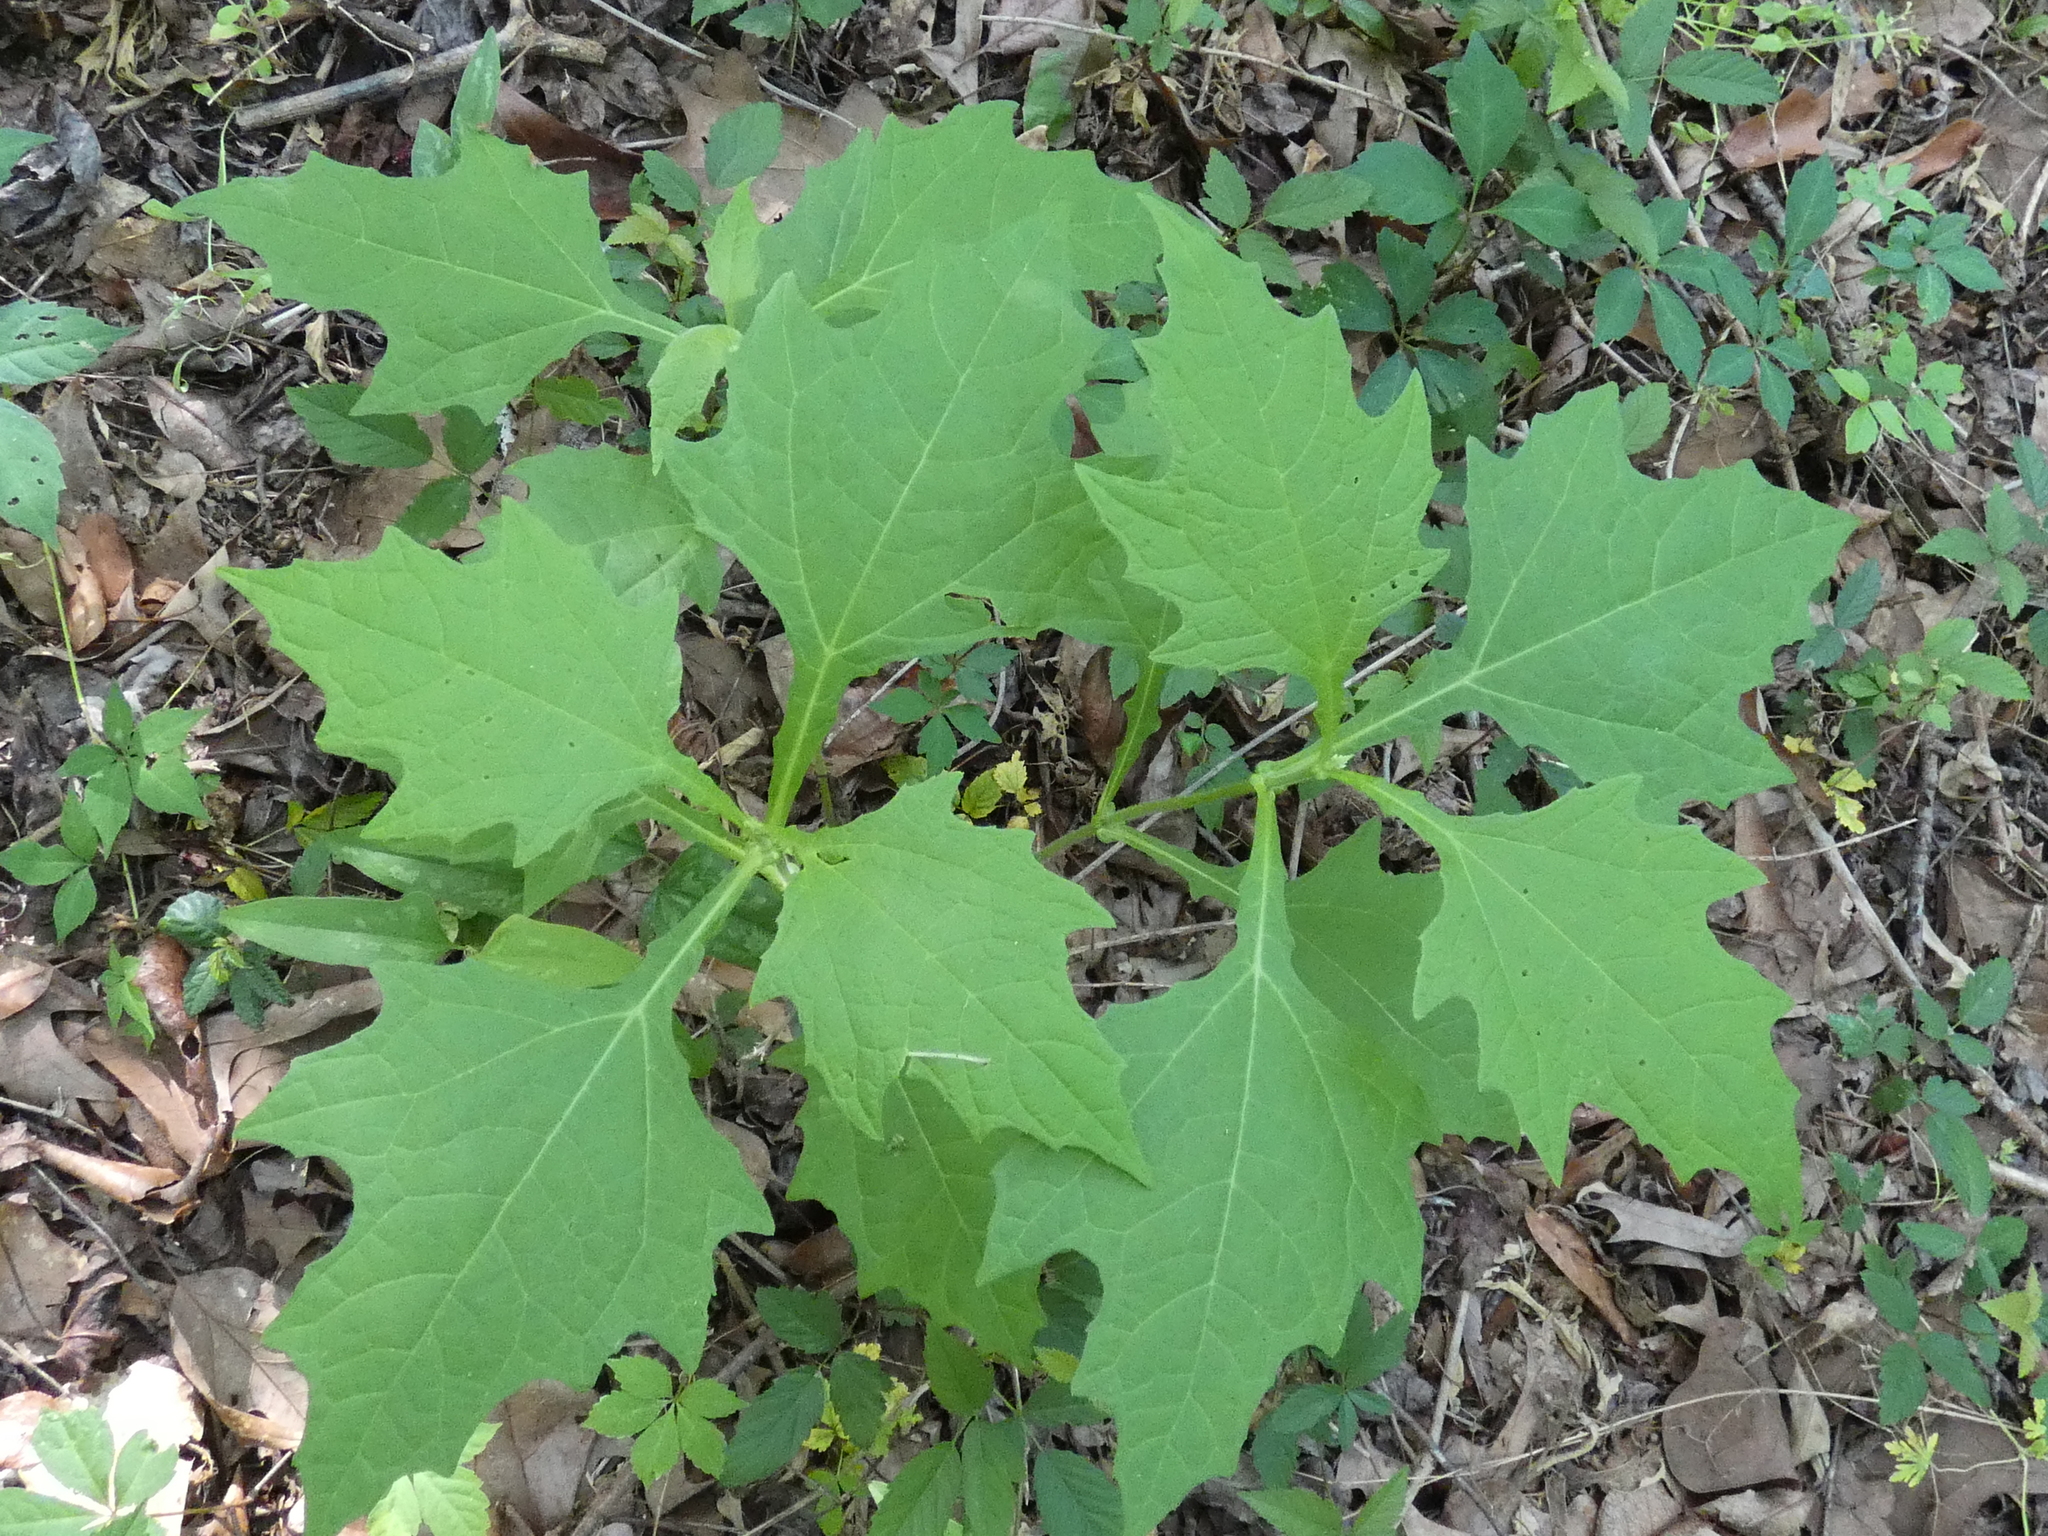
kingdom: Plantae
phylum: Tracheophyta
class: Magnoliopsida
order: Asterales
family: Asteraceae
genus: Smallanthus
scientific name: Smallanthus uvedalia
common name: Bear's-foot
